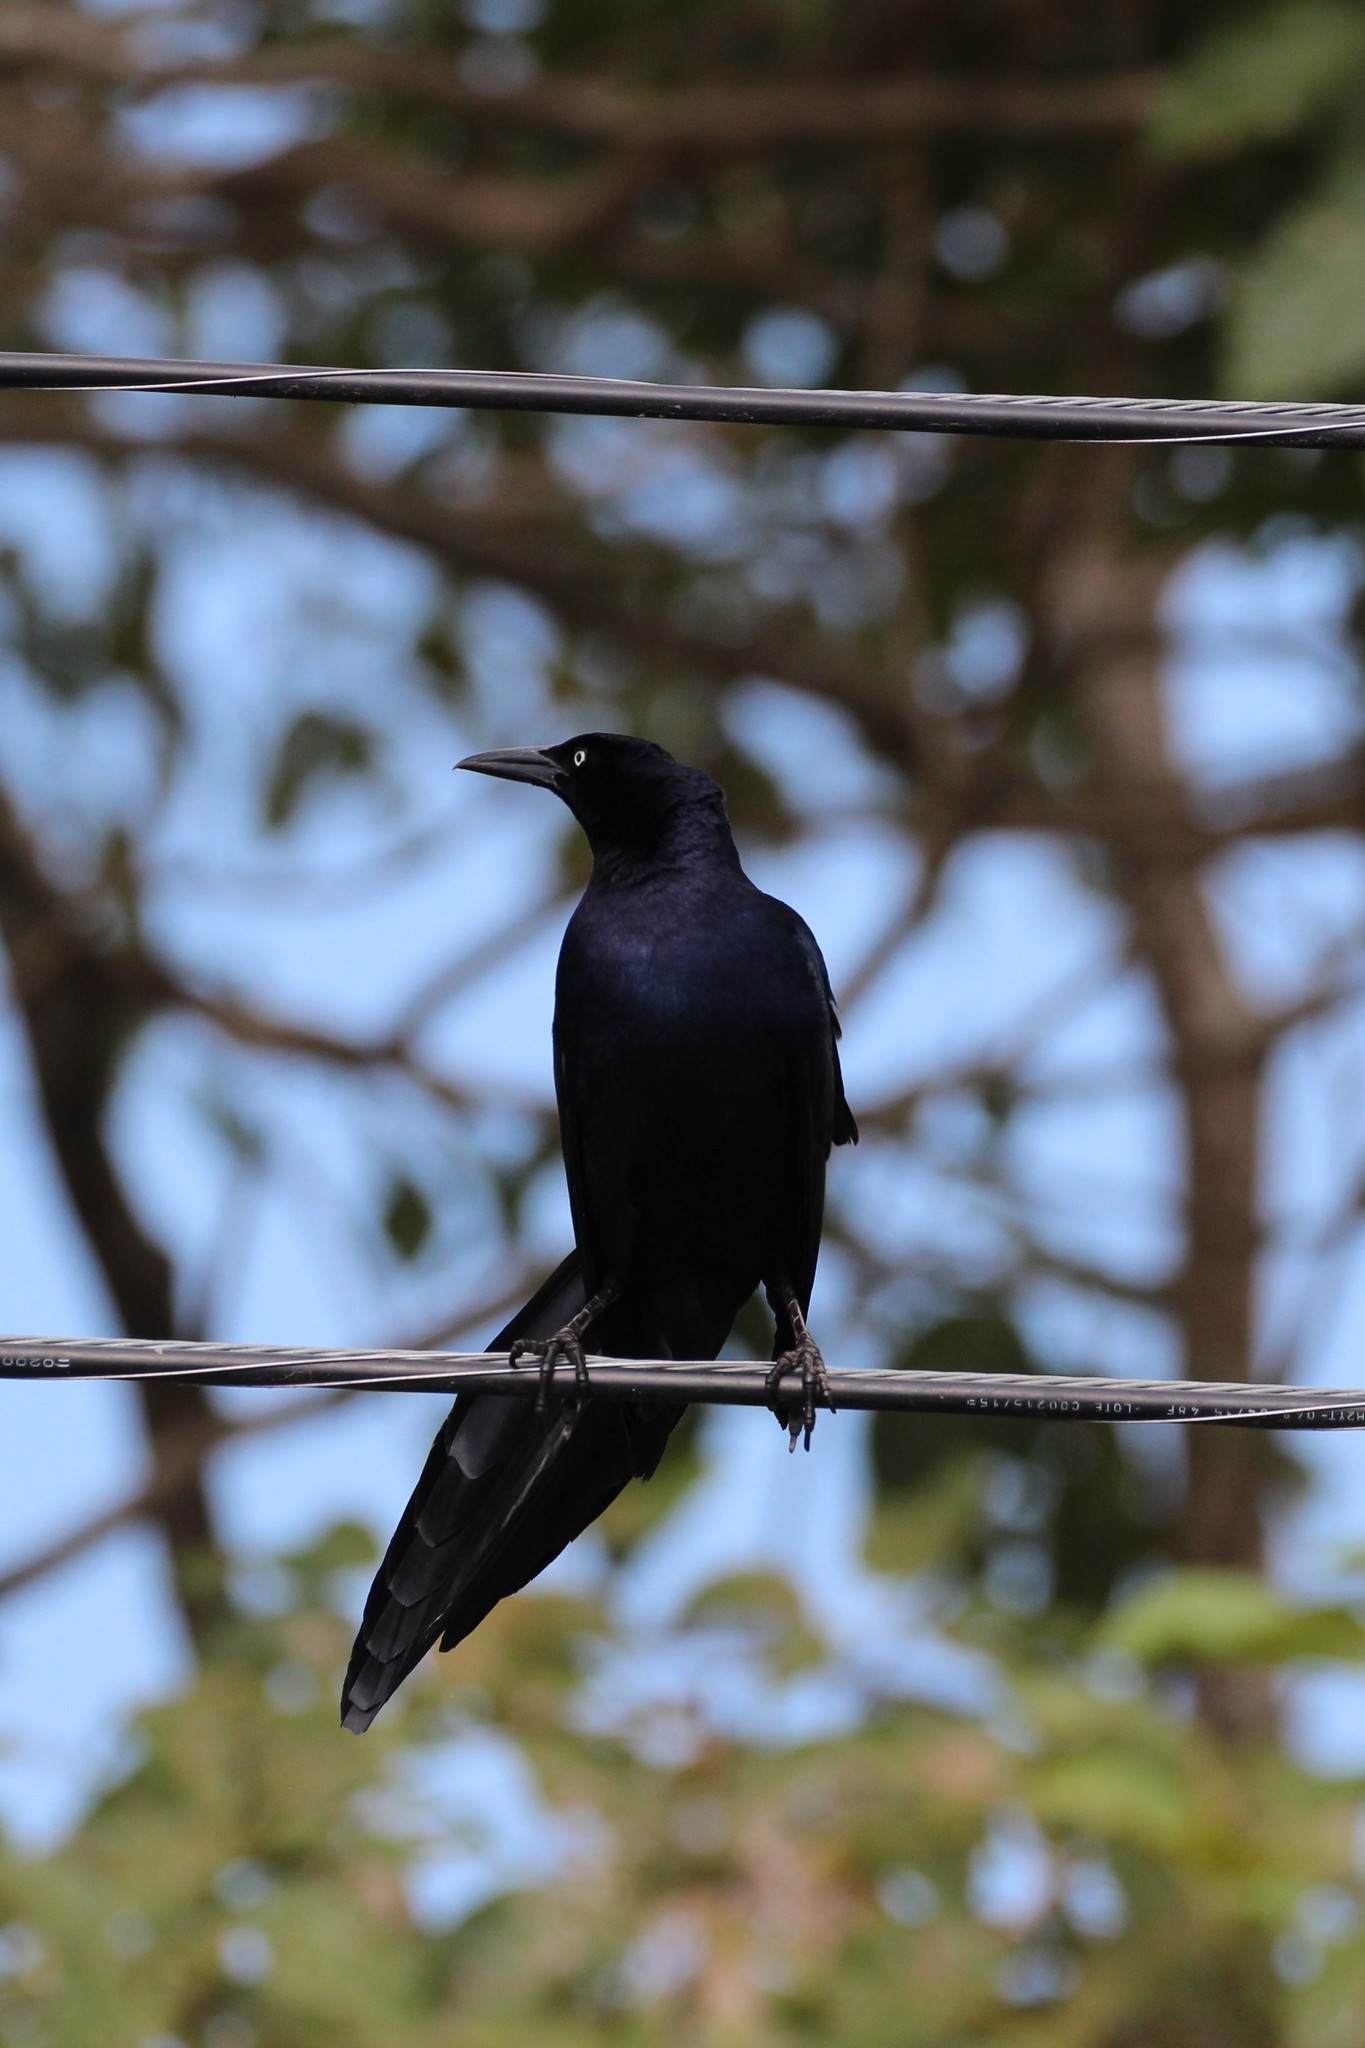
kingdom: Animalia
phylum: Chordata
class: Aves
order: Passeriformes
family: Icteridae
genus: Quiscalus
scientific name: Quiscalus mexicanus
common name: Great-tailed grackle
